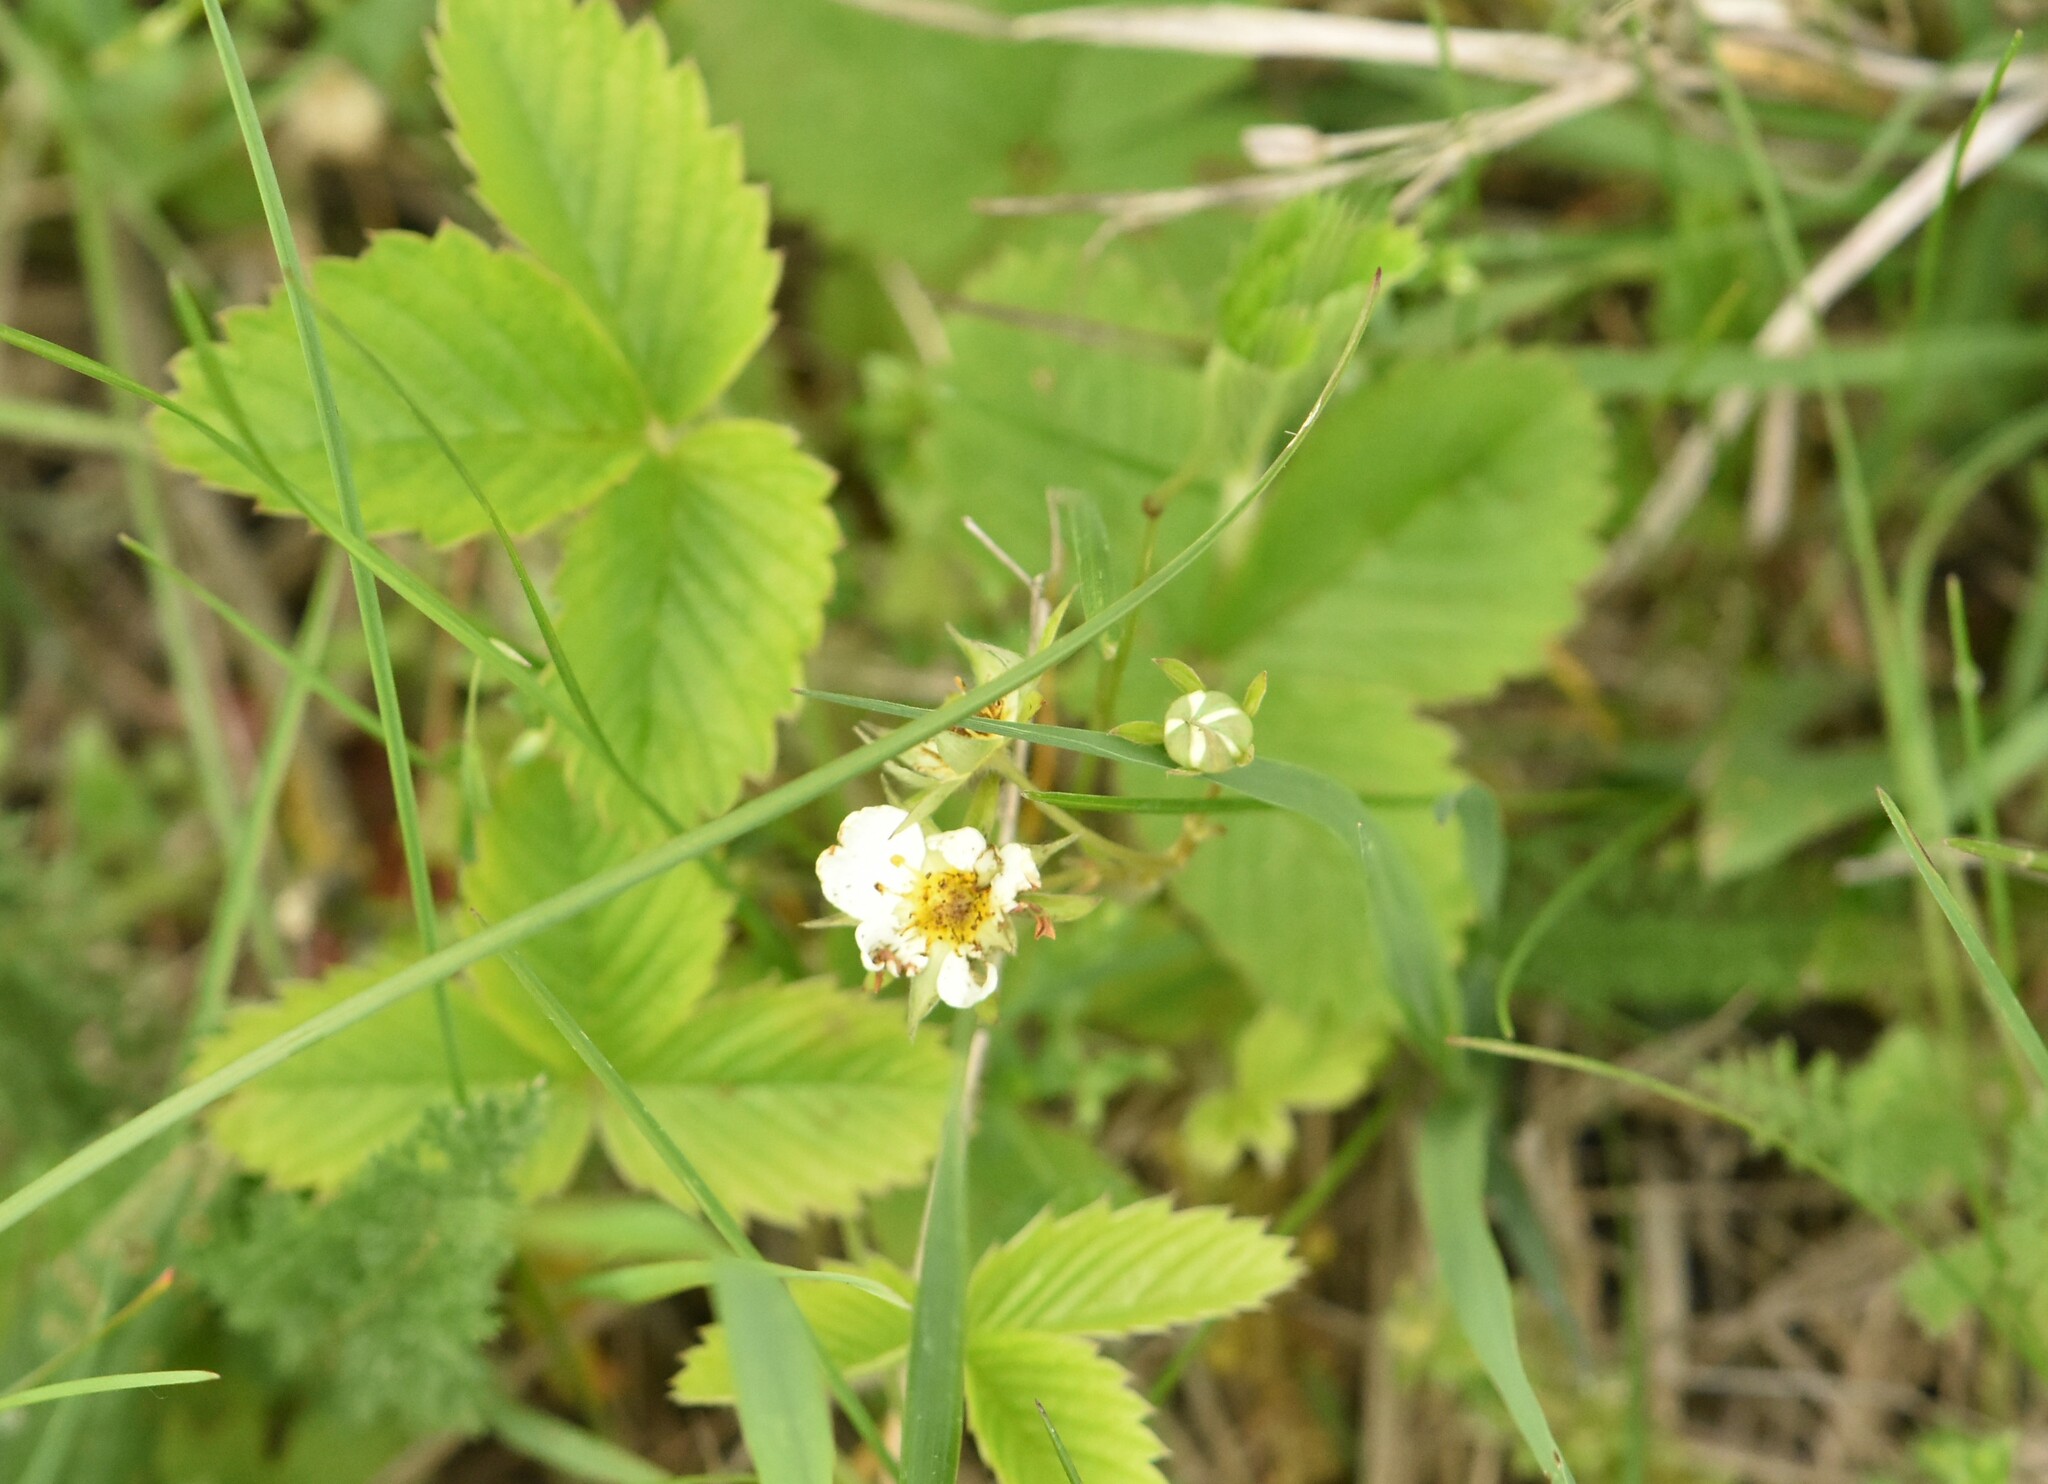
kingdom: Plantae
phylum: Tracheophyta
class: Magnoliopsida
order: Rosales
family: Rosaceae
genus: Fragaria
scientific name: Fragaria viridis
